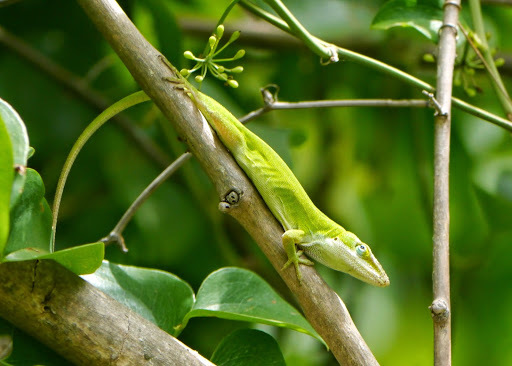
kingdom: Animalia
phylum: Chordata
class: Squamata
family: Dactyloidae
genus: Anolis
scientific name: Anolis carolinensis
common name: Green anole
